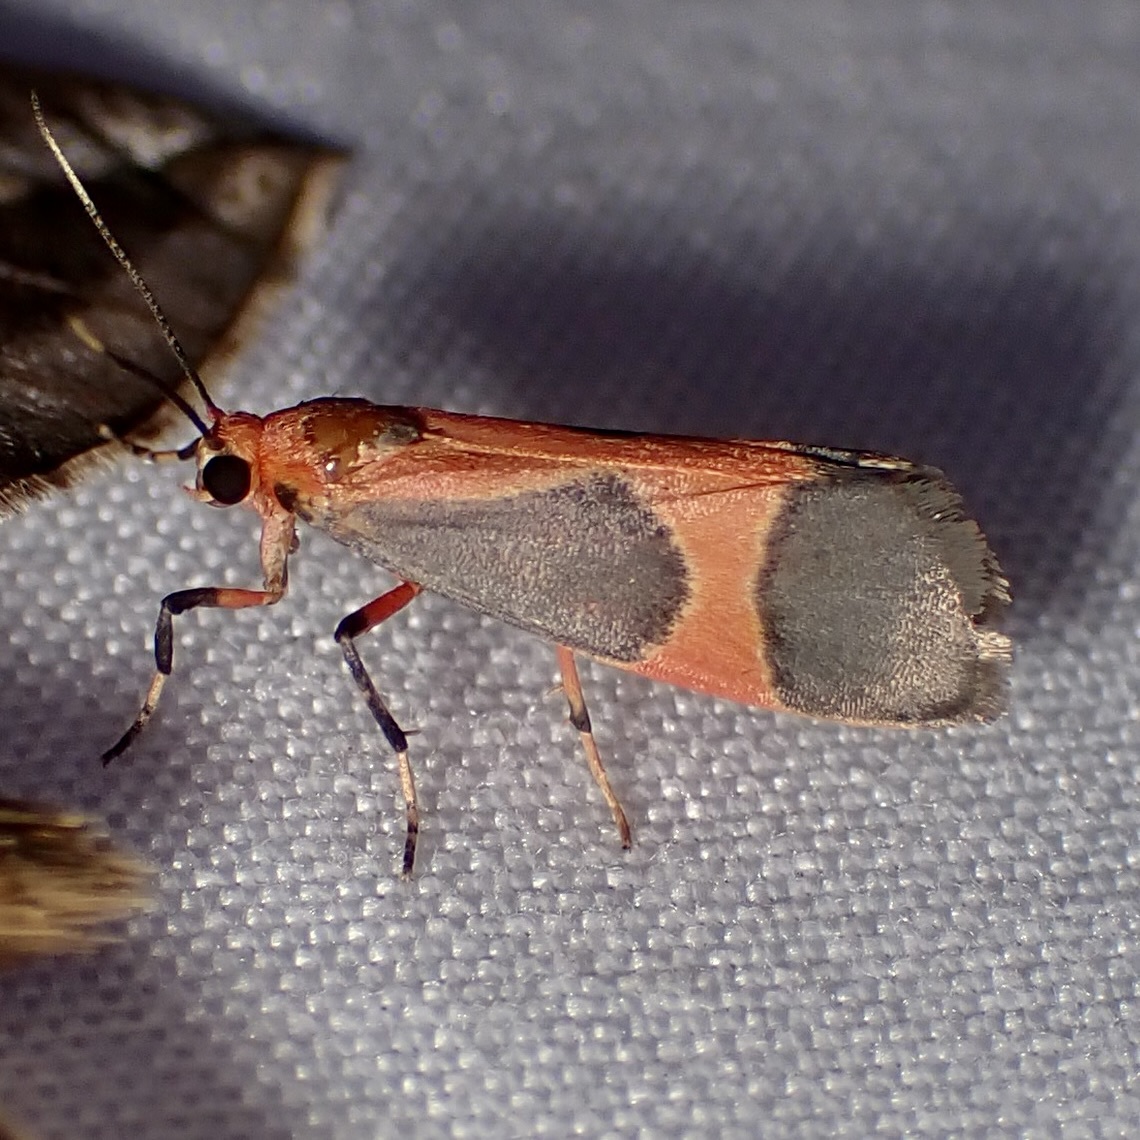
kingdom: Animalia
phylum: Arthropoda
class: Insecta
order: Lepidoptera
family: Erebidae
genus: Cisthene
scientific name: Cisthene martini
